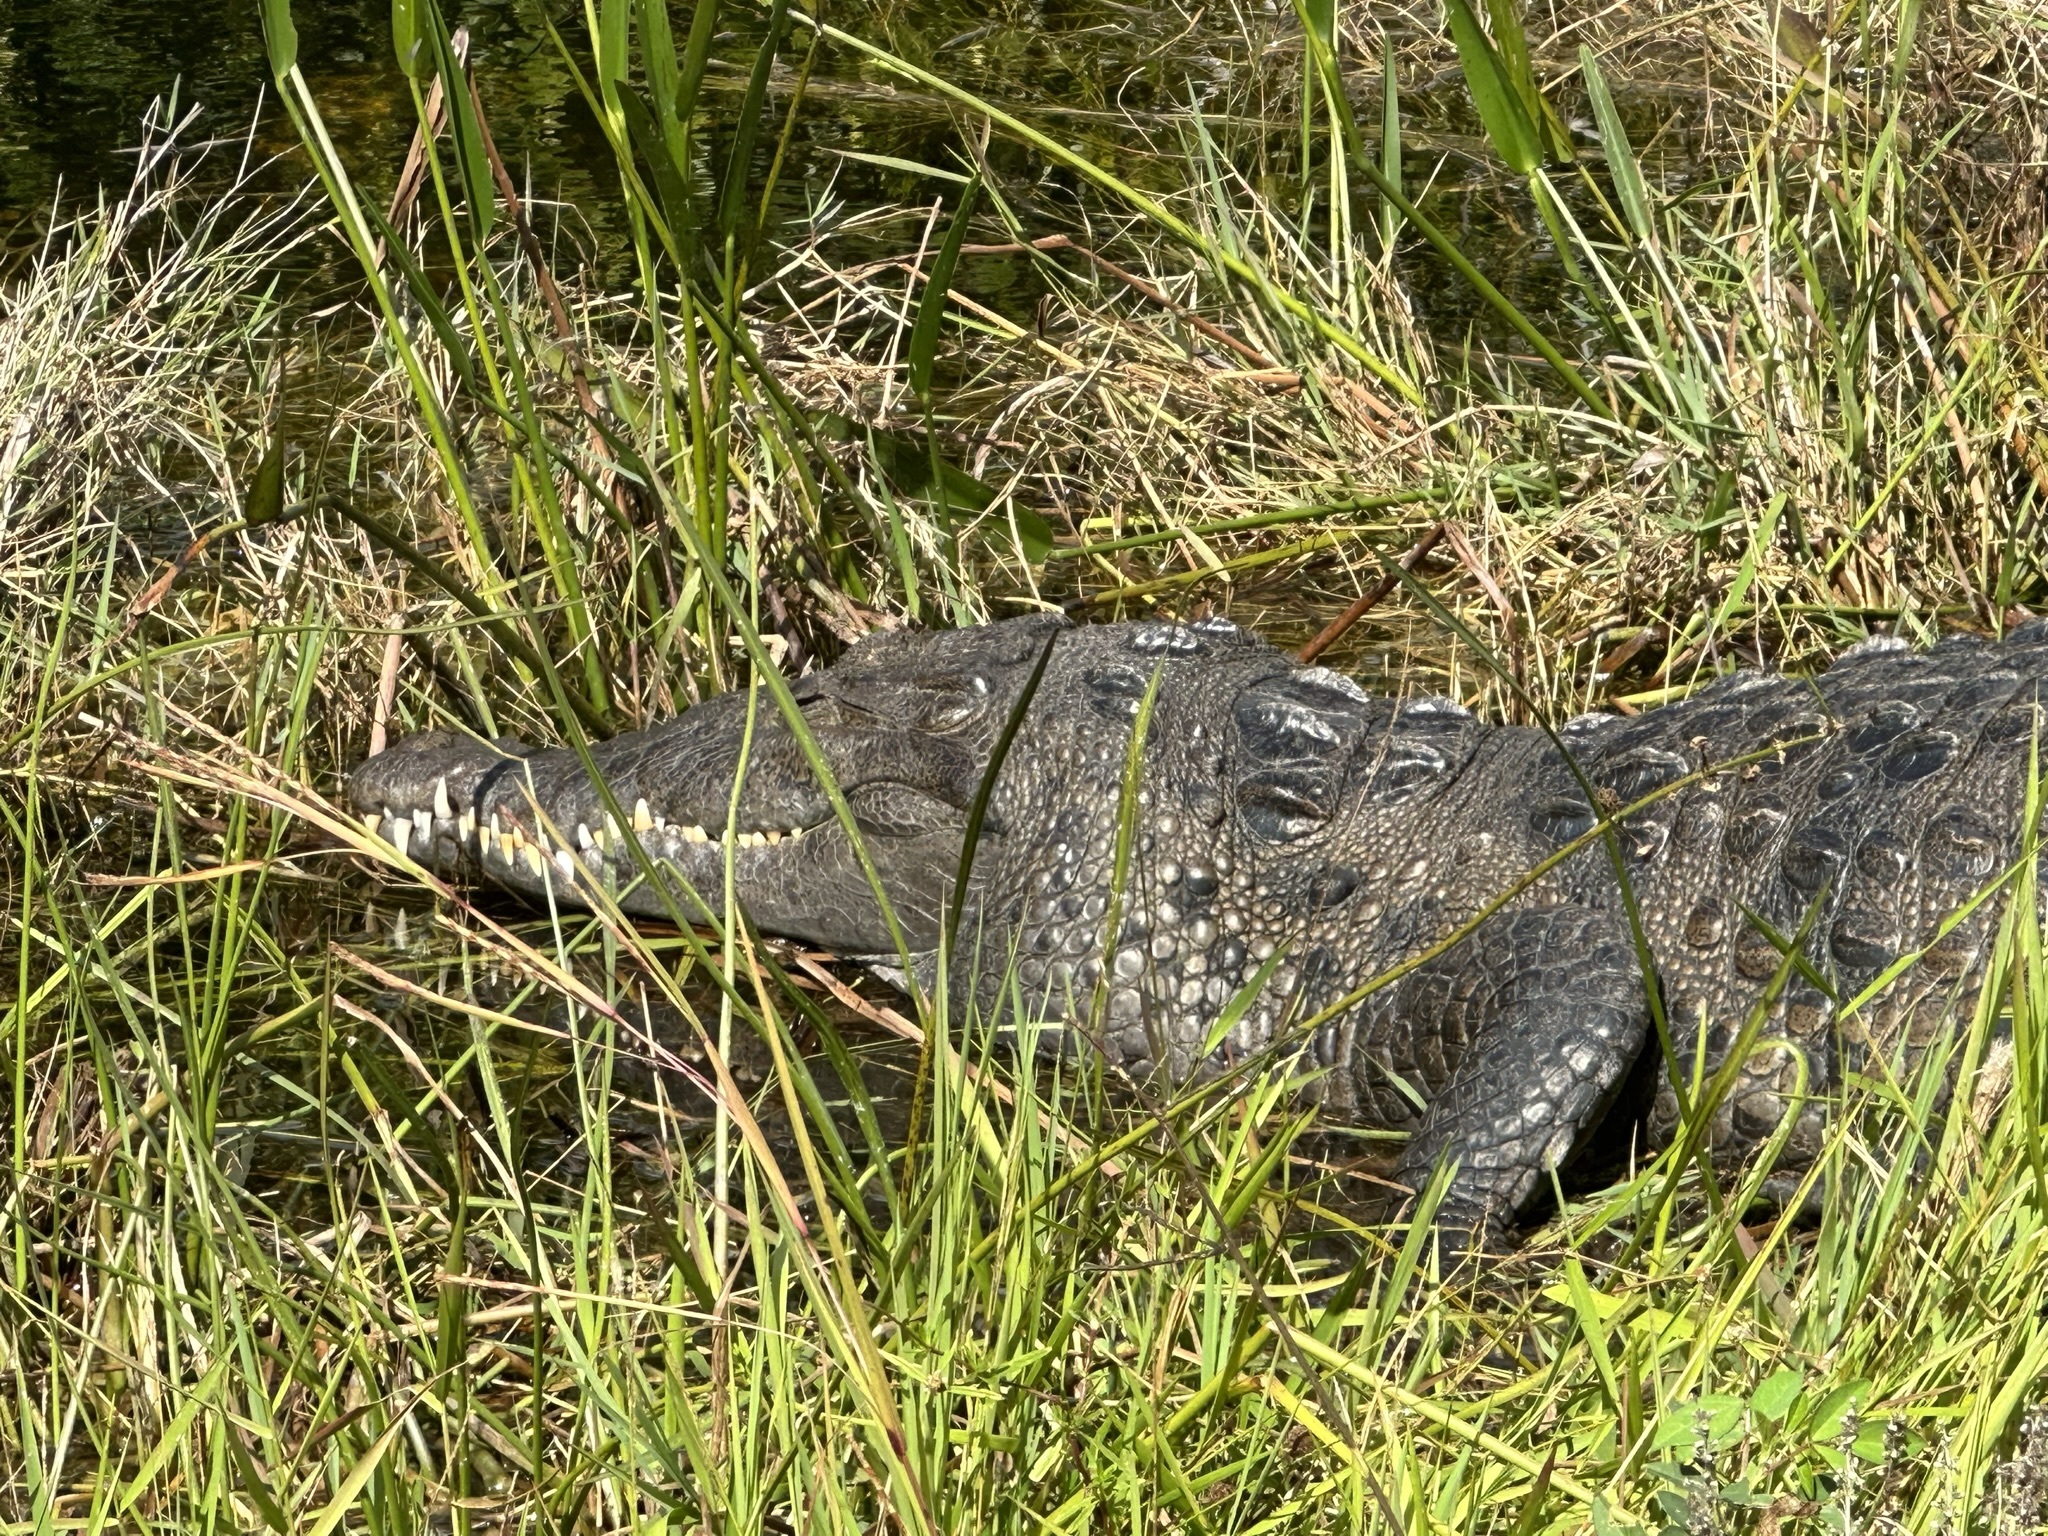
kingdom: Animalia
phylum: Chordata
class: Crocodylia
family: Crocodylidae
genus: Crocodylus
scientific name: Crocodylus acutus
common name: American crocodile
